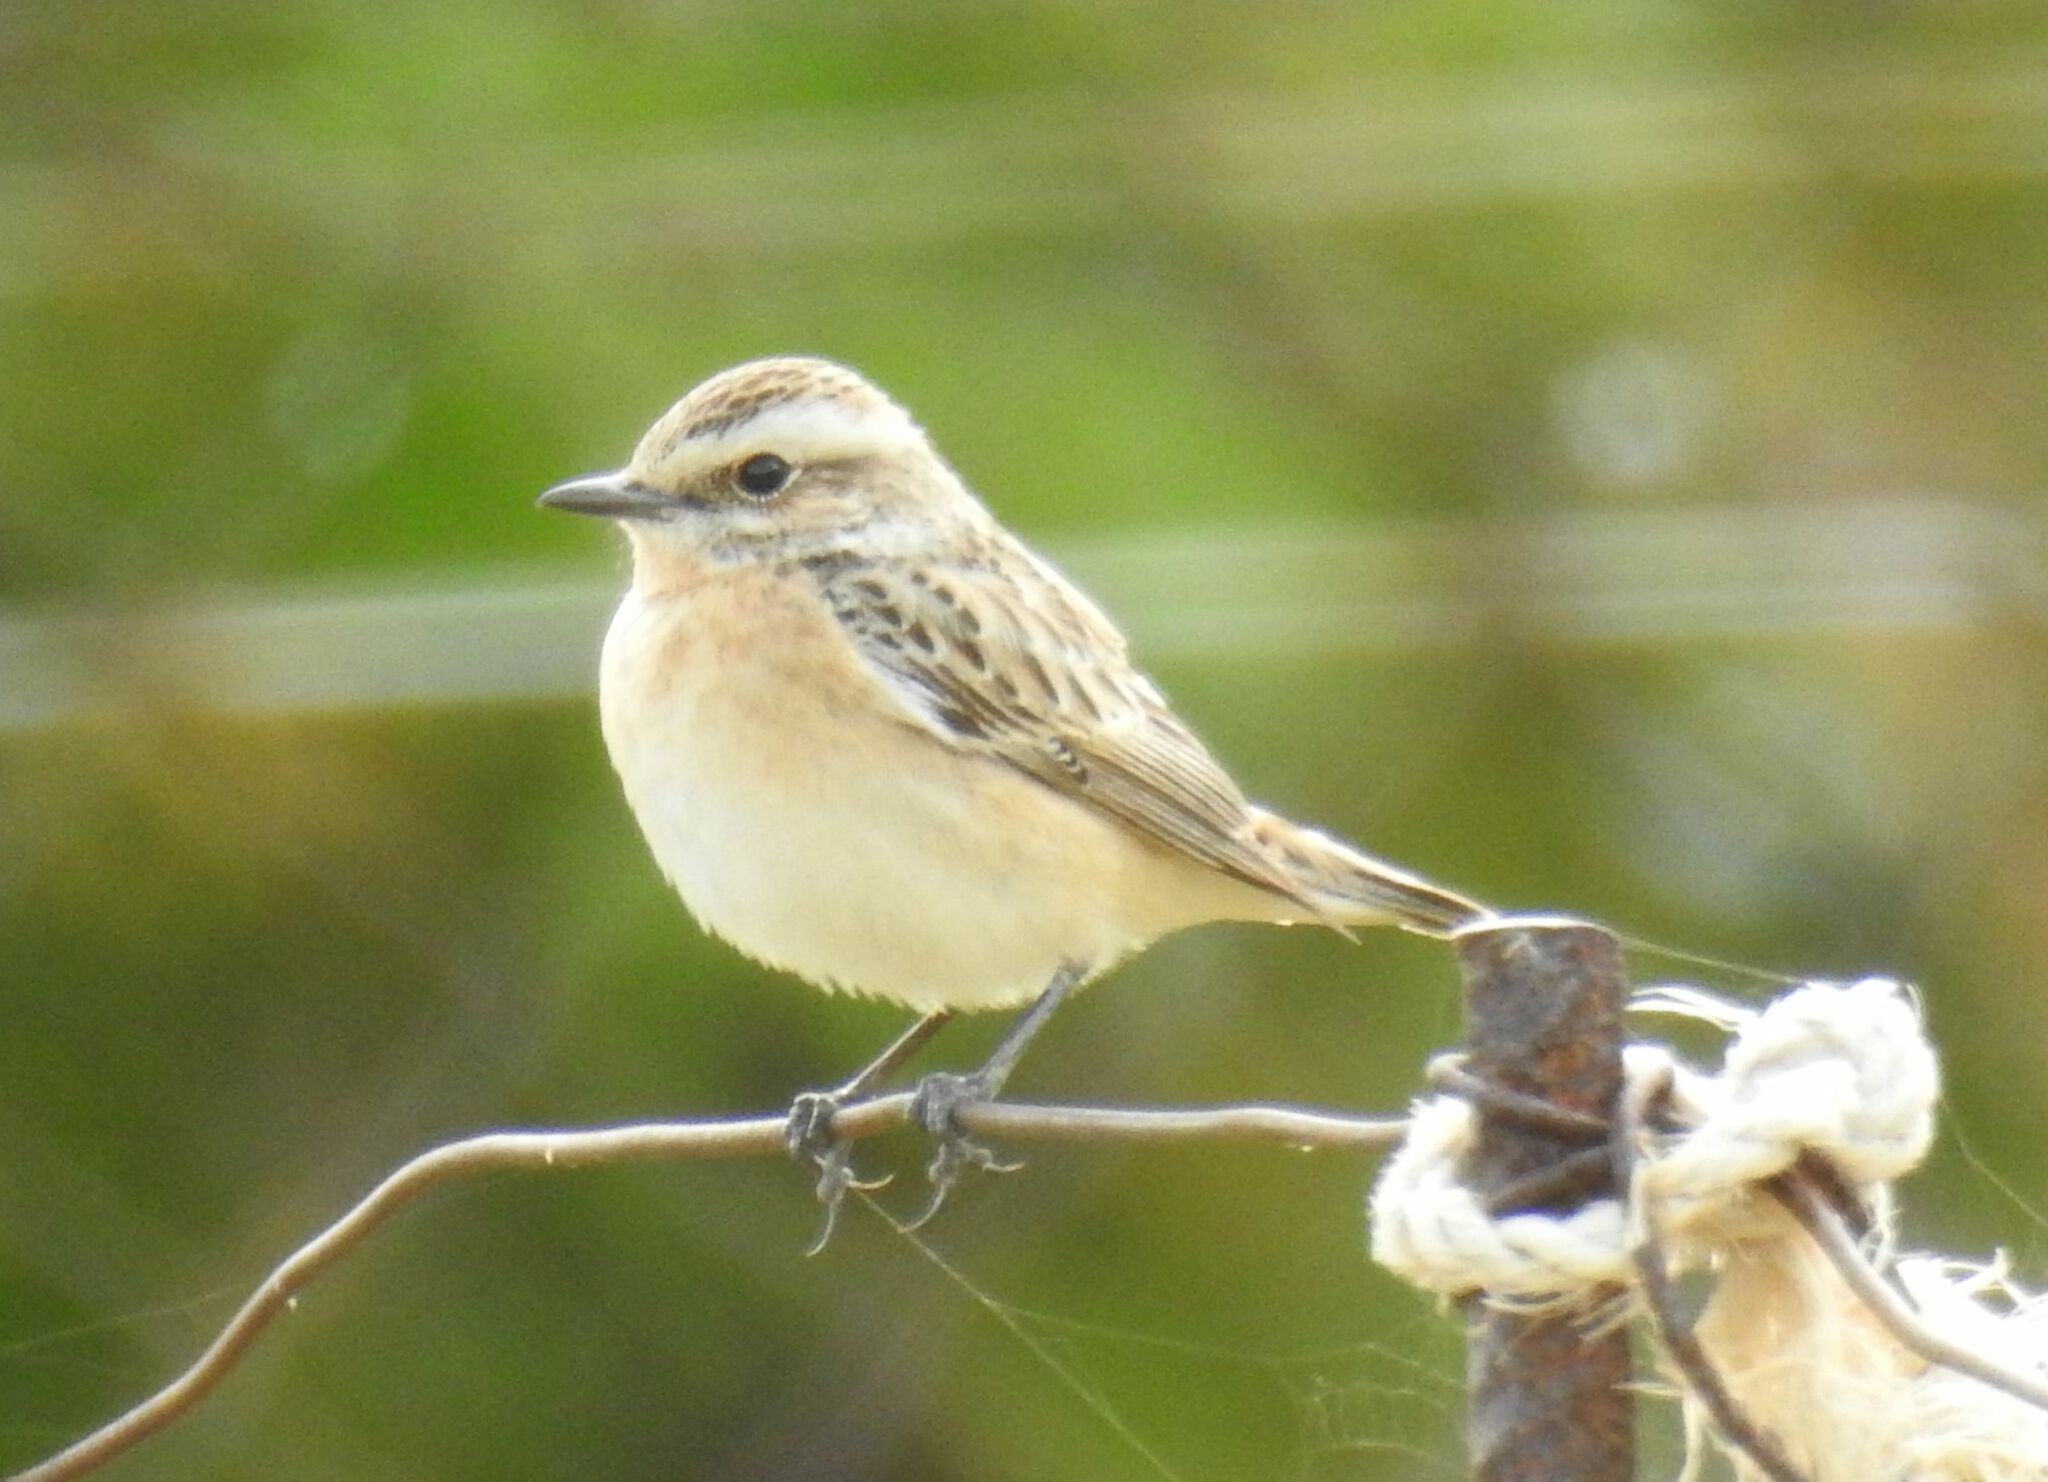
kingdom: Animalia
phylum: Chordata
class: Aves
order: Passeriformes
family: Muscicapidae
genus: Saxicola
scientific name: Saxicola rubetra
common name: Whinchat
